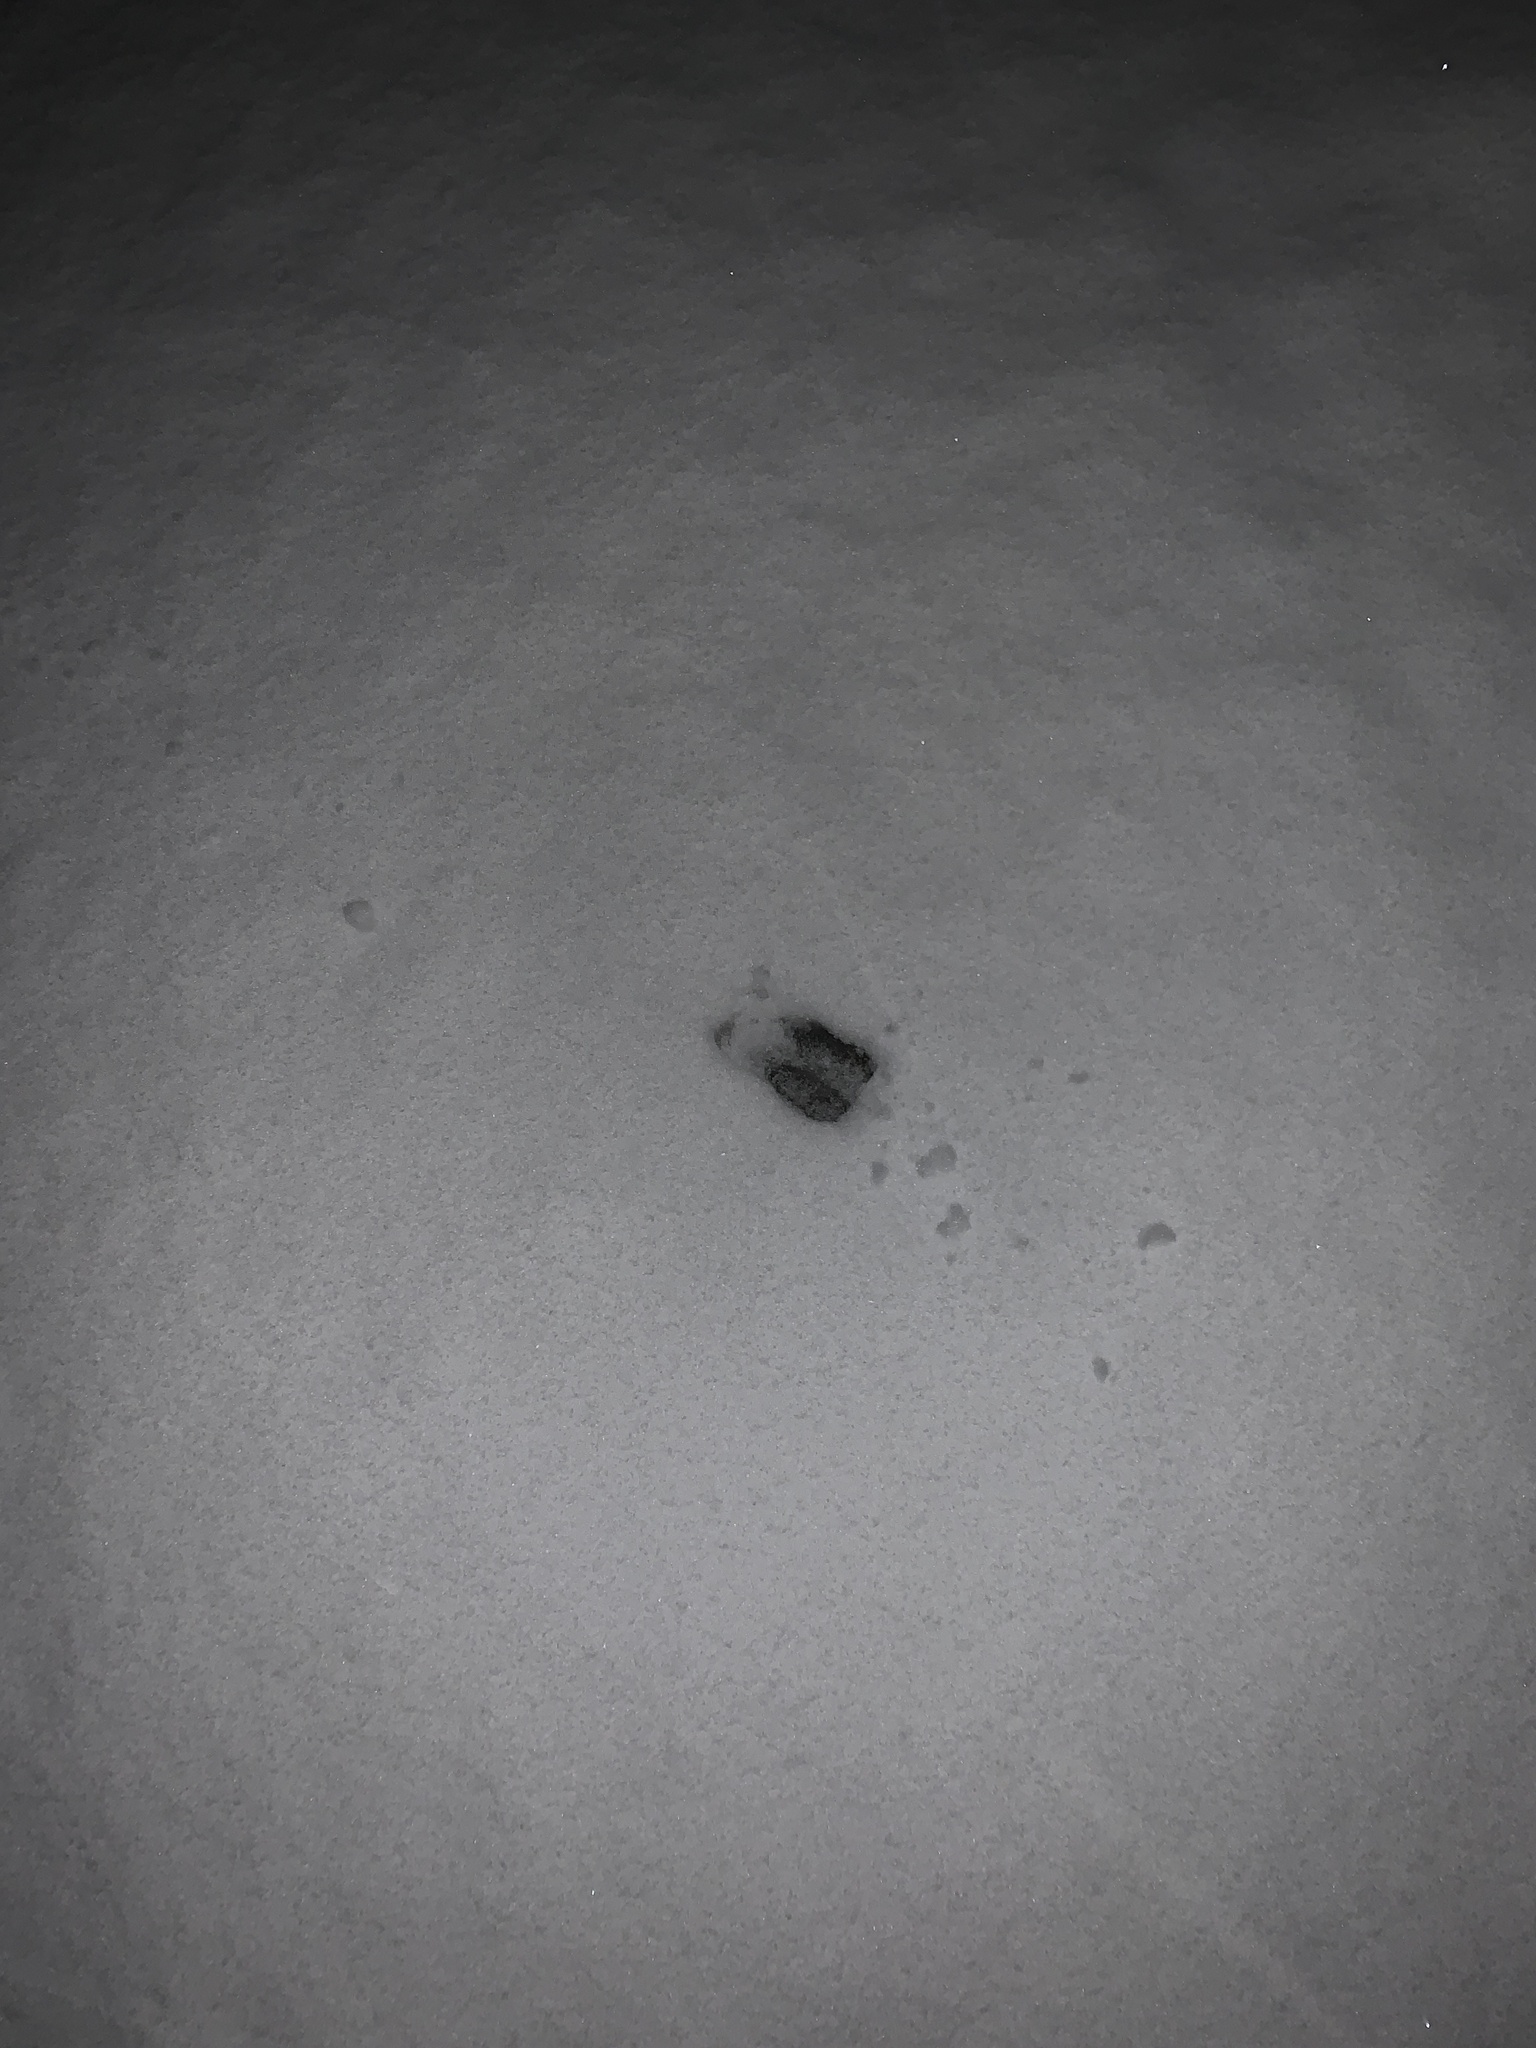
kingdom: Animalia
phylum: Chordata
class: Mammalia
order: Artiodactyla
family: Cervidae
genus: Odocoileus
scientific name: Odocoileus hemionus
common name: Mule deer
